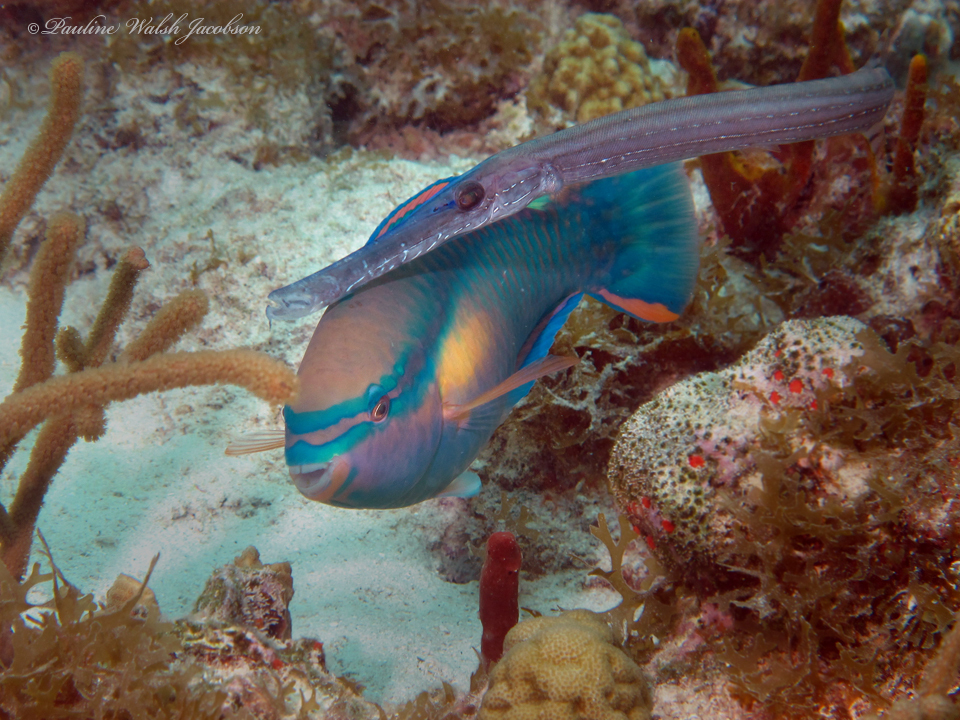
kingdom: Animalia
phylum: Chordata
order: Syngnathiformes
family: Aulostomidae
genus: Aulostomus
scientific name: Aulostomus maculatus
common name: West atlantic trumpetfish
